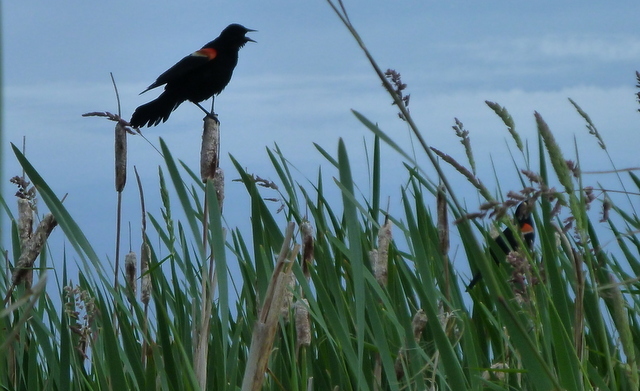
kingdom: Animalia
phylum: Chordata
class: Aves
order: Passeriformes
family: Icteridae
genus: Agelaius
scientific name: Agelaius phoeniceus
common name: Red-winged blackbird
